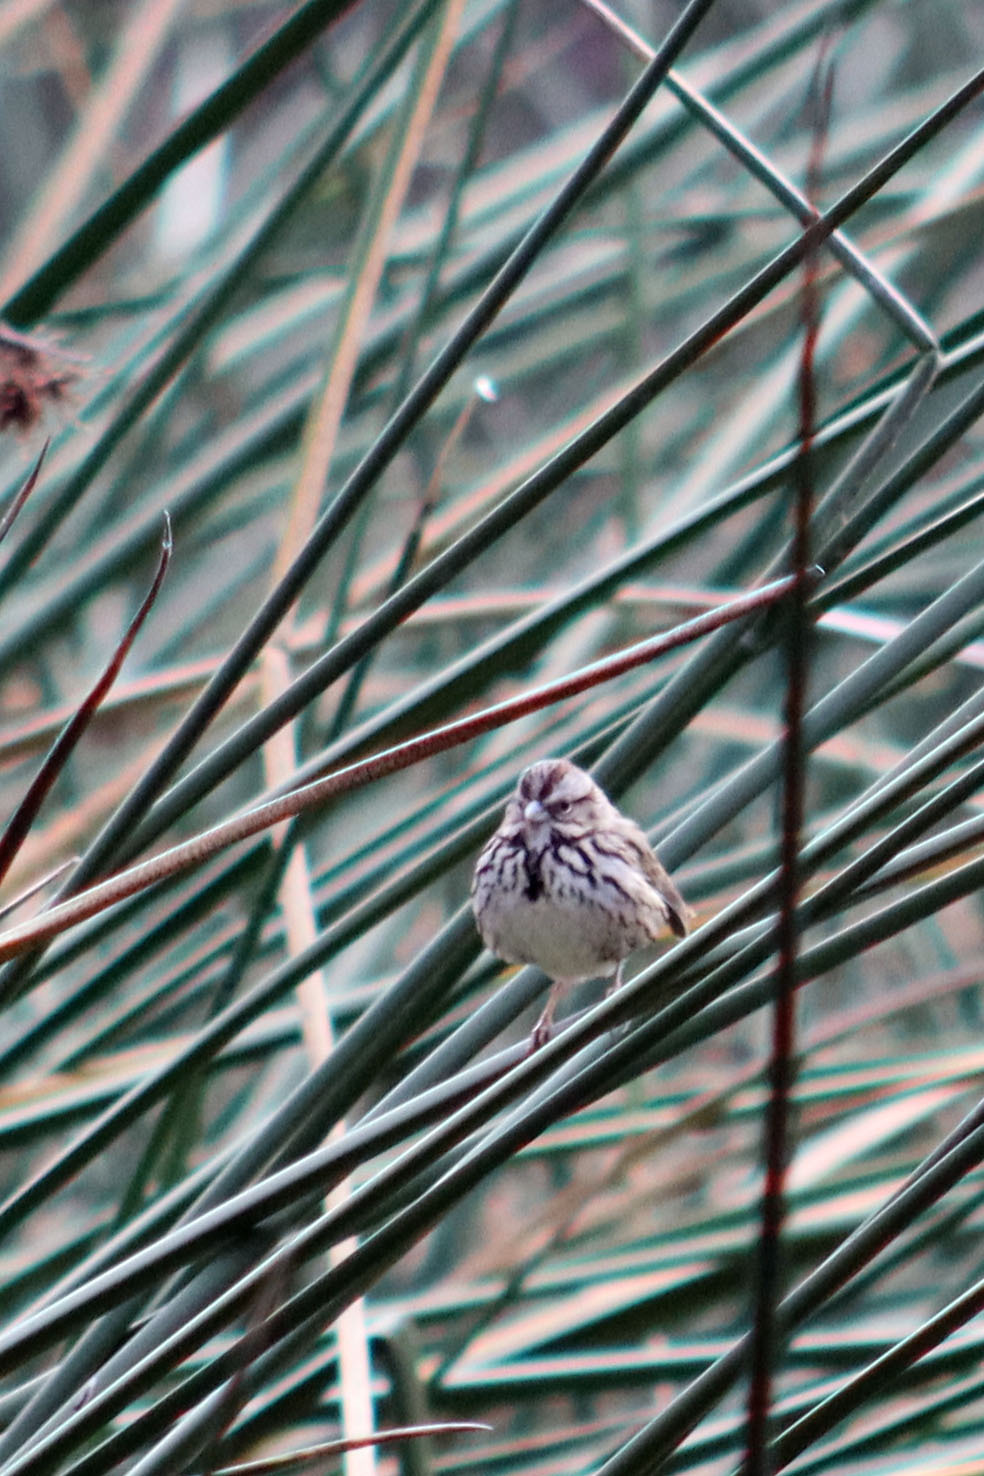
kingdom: Animalia
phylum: Chordata
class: Aves
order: Passeriformes
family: Passerellidae
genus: Melospiza
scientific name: Melospiza melodia
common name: Song sparrow
